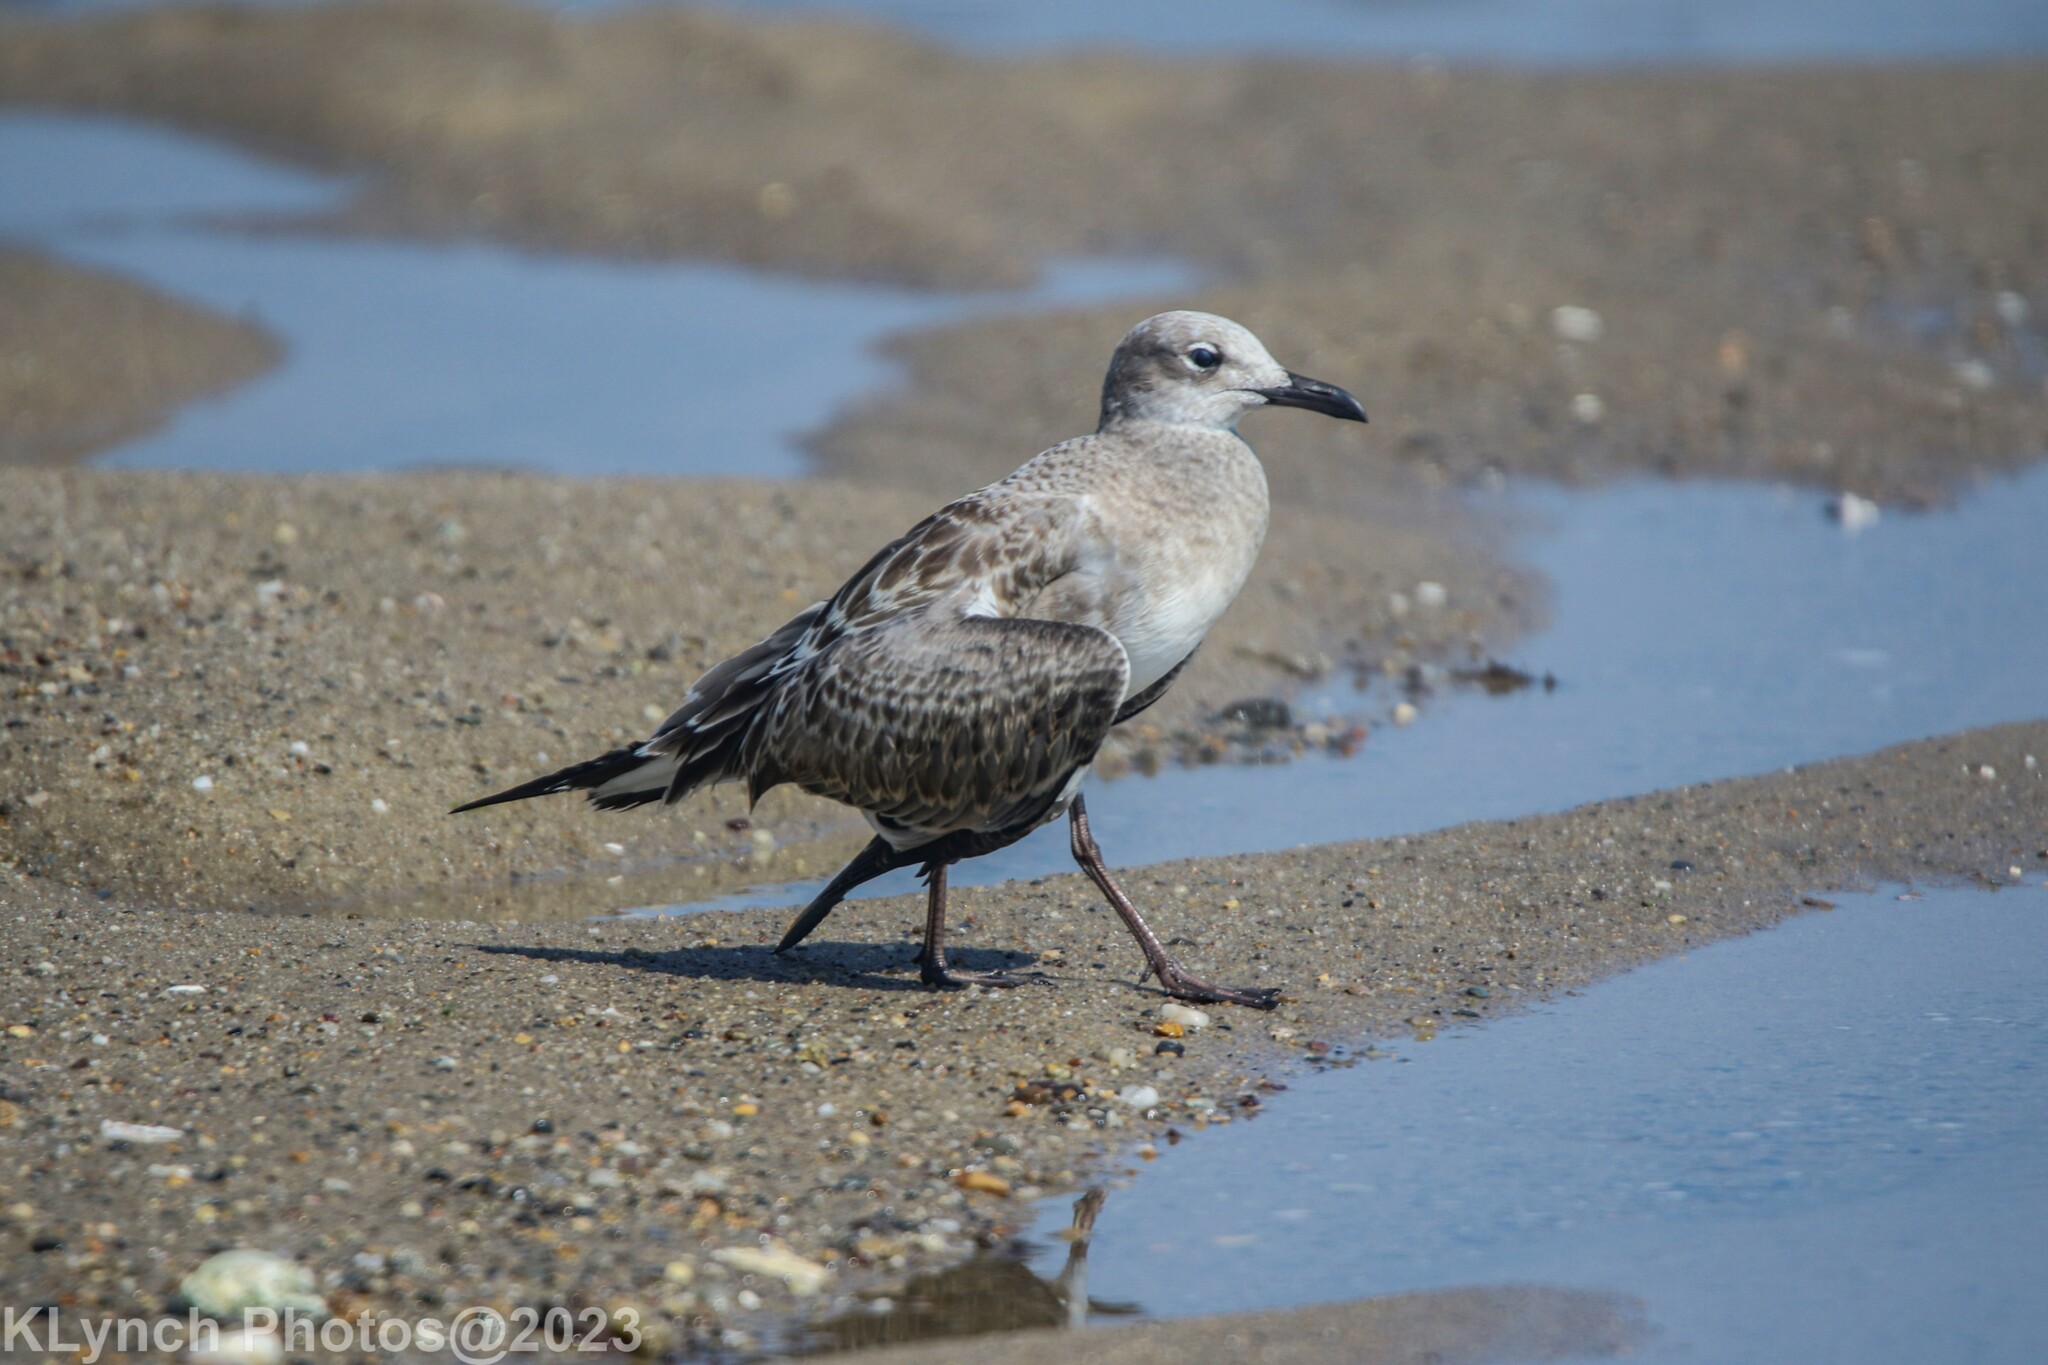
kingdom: Animalia
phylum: Chordata
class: Aves
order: Charadriiformes
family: Laridae
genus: Leucophaeus
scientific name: Leucophaeus atricilla
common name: Laughing gull
